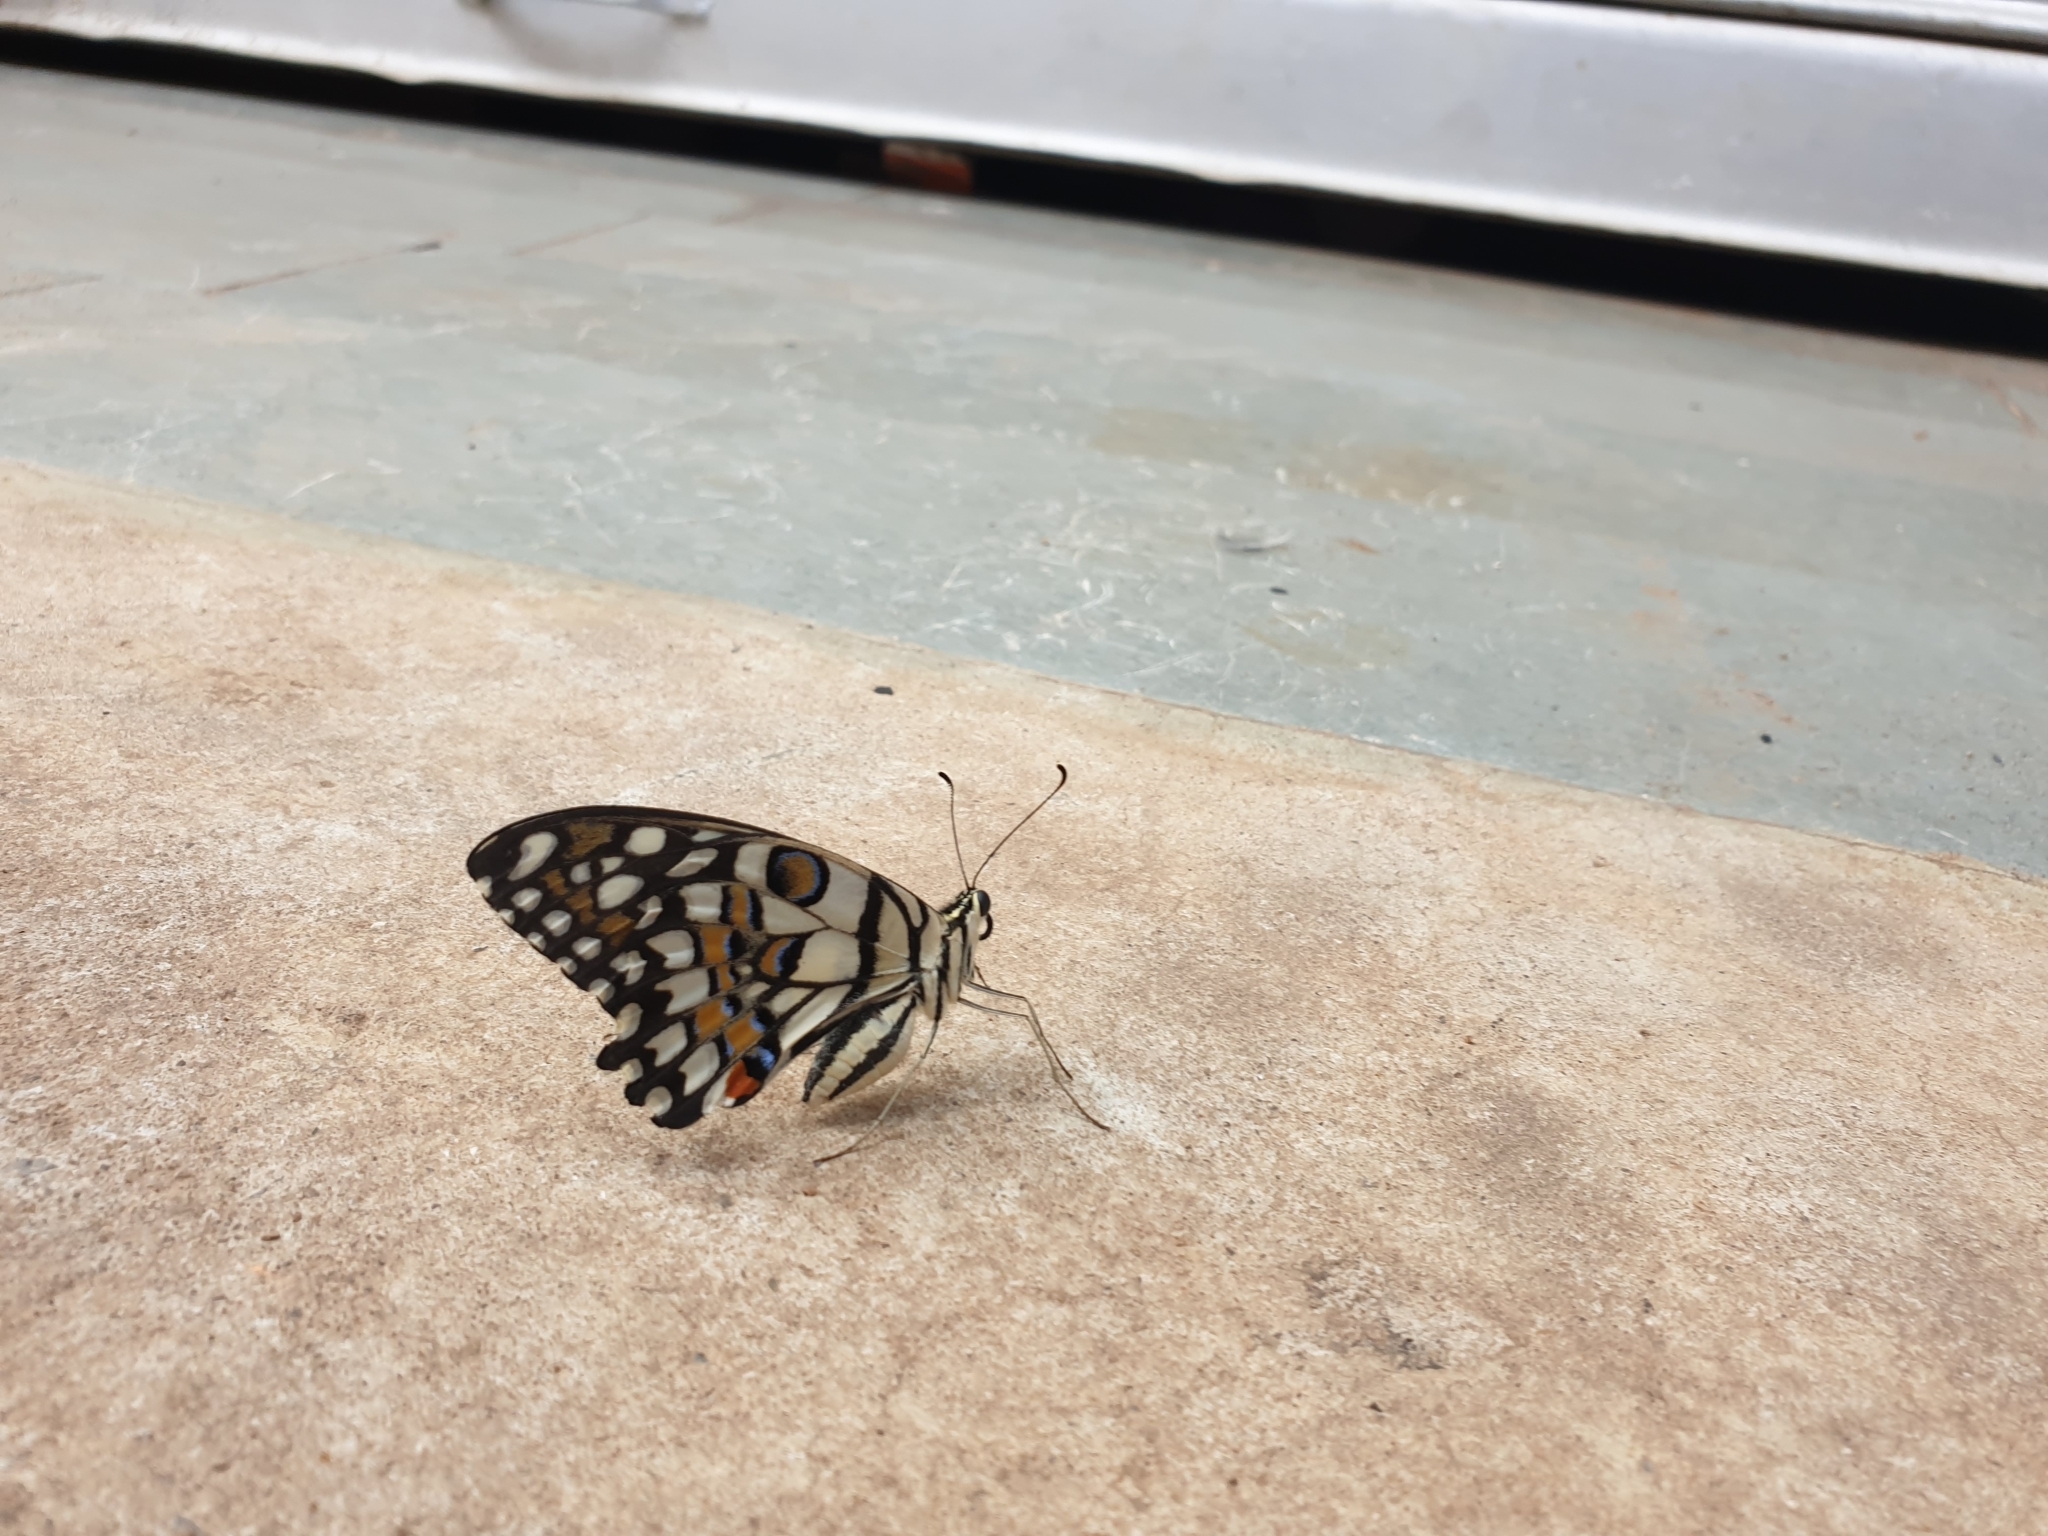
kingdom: Animalia
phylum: Arthropoda
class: Insecta
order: Lepidoptera
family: Papilionidae
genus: Papilio
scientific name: Papilio demoleus
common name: Lime butterfly
